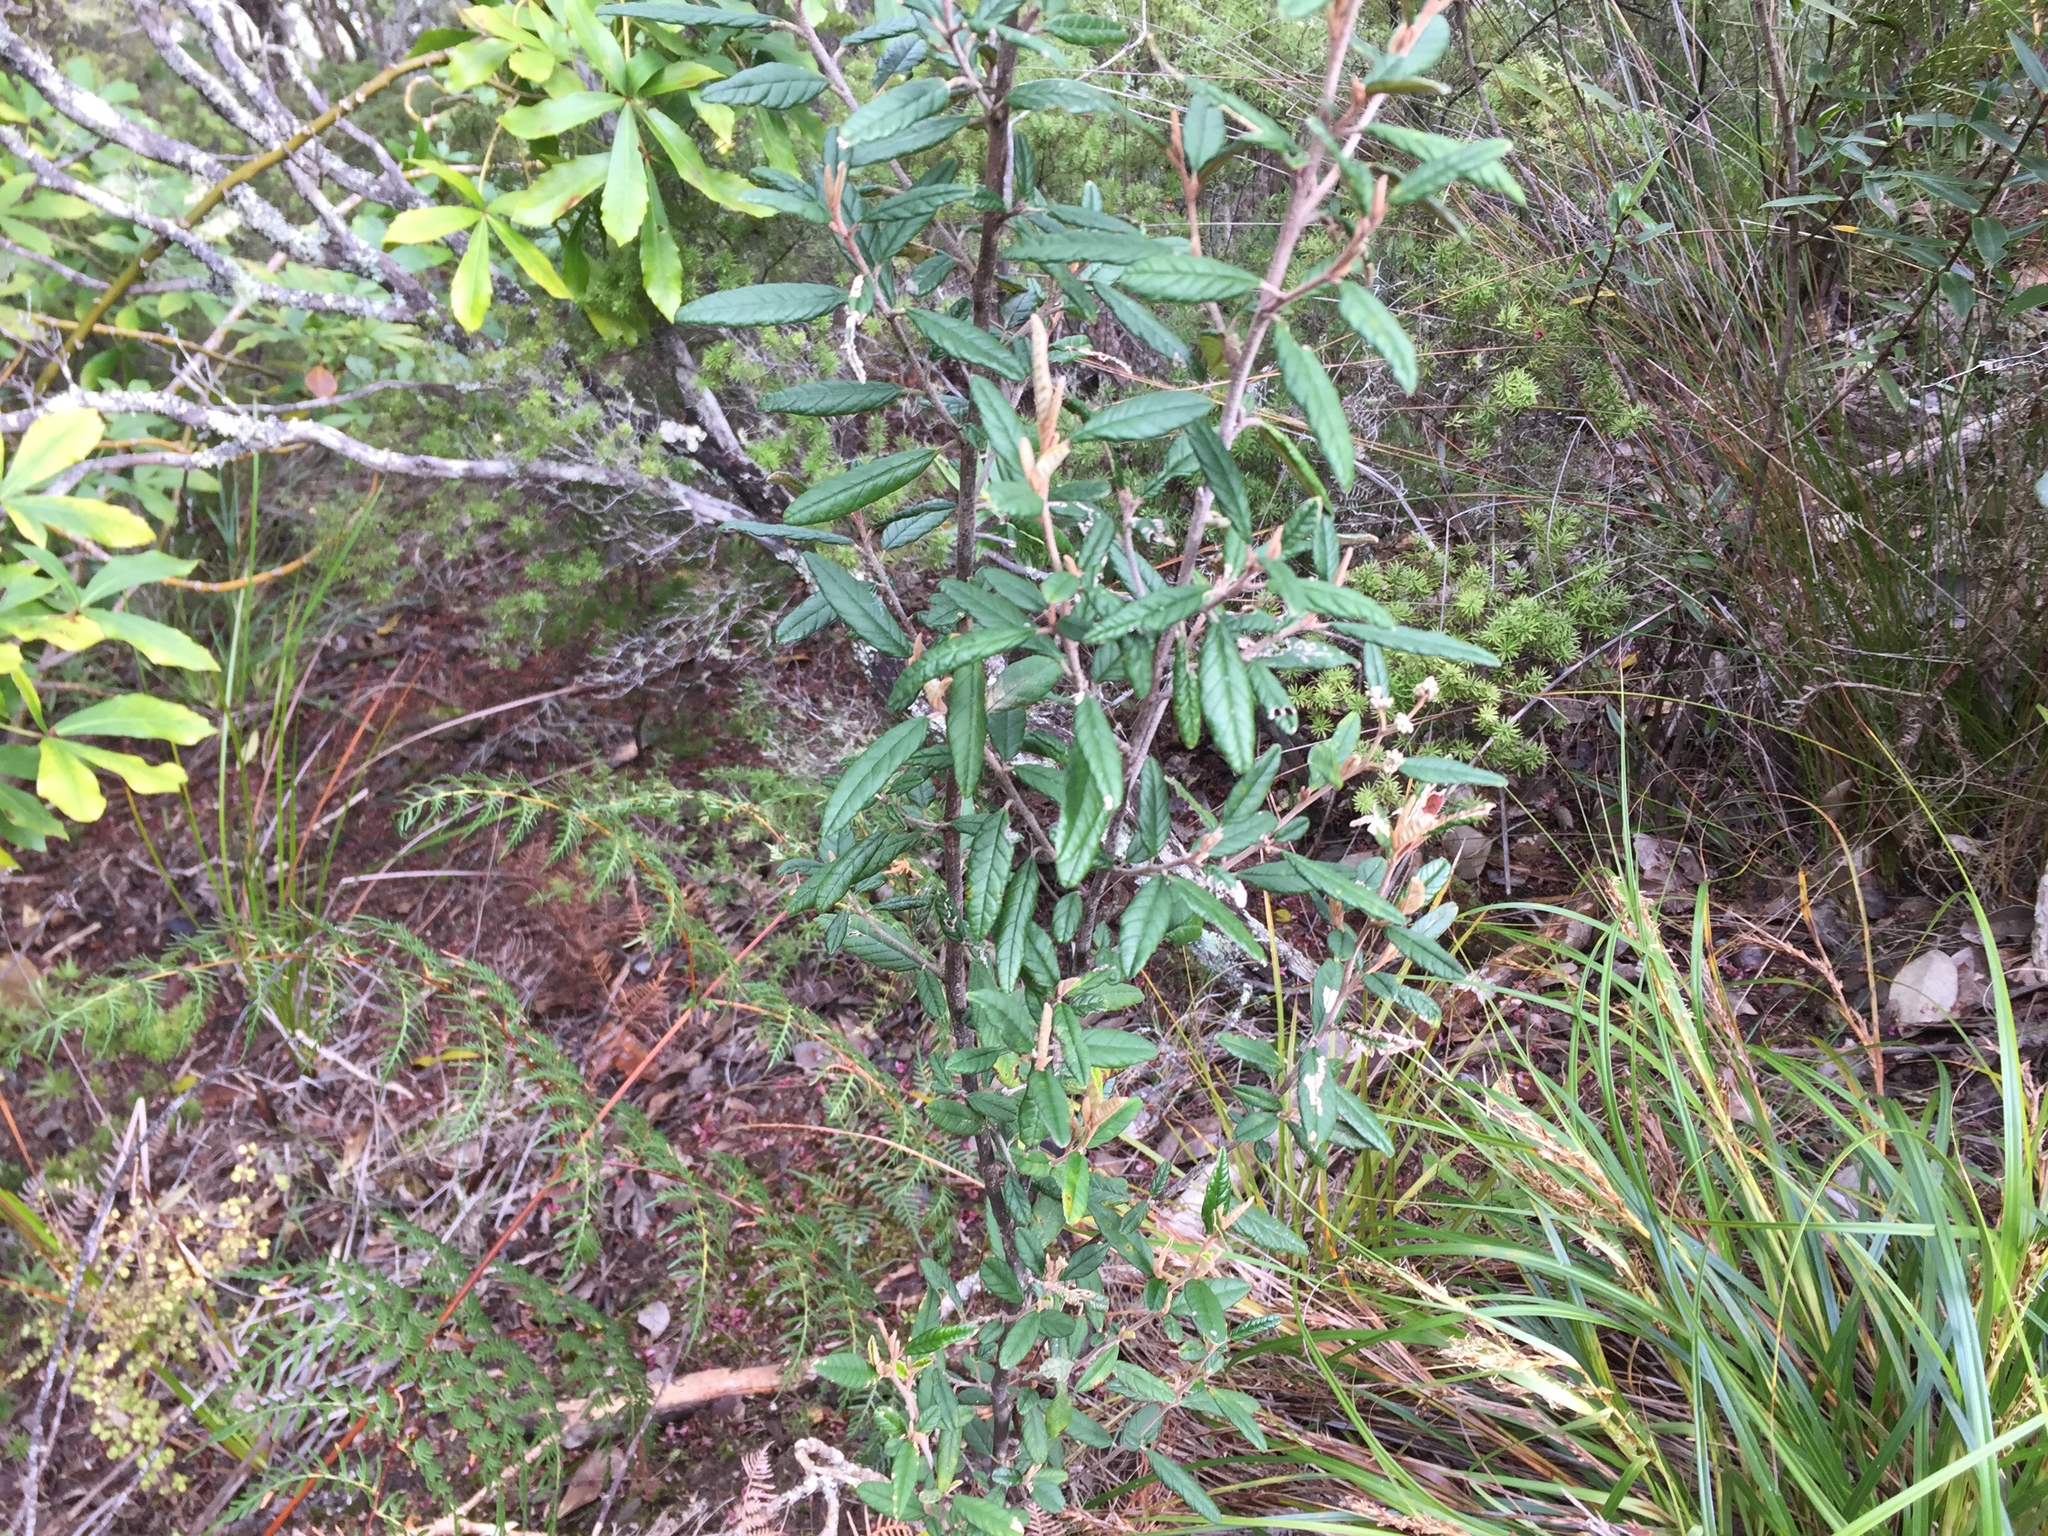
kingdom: Plantae
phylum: Tracheophyta
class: Magnoliopsida
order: Rosales
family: Rhamnaceae
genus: Pomaderris
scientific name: Pomaderris rugosa
